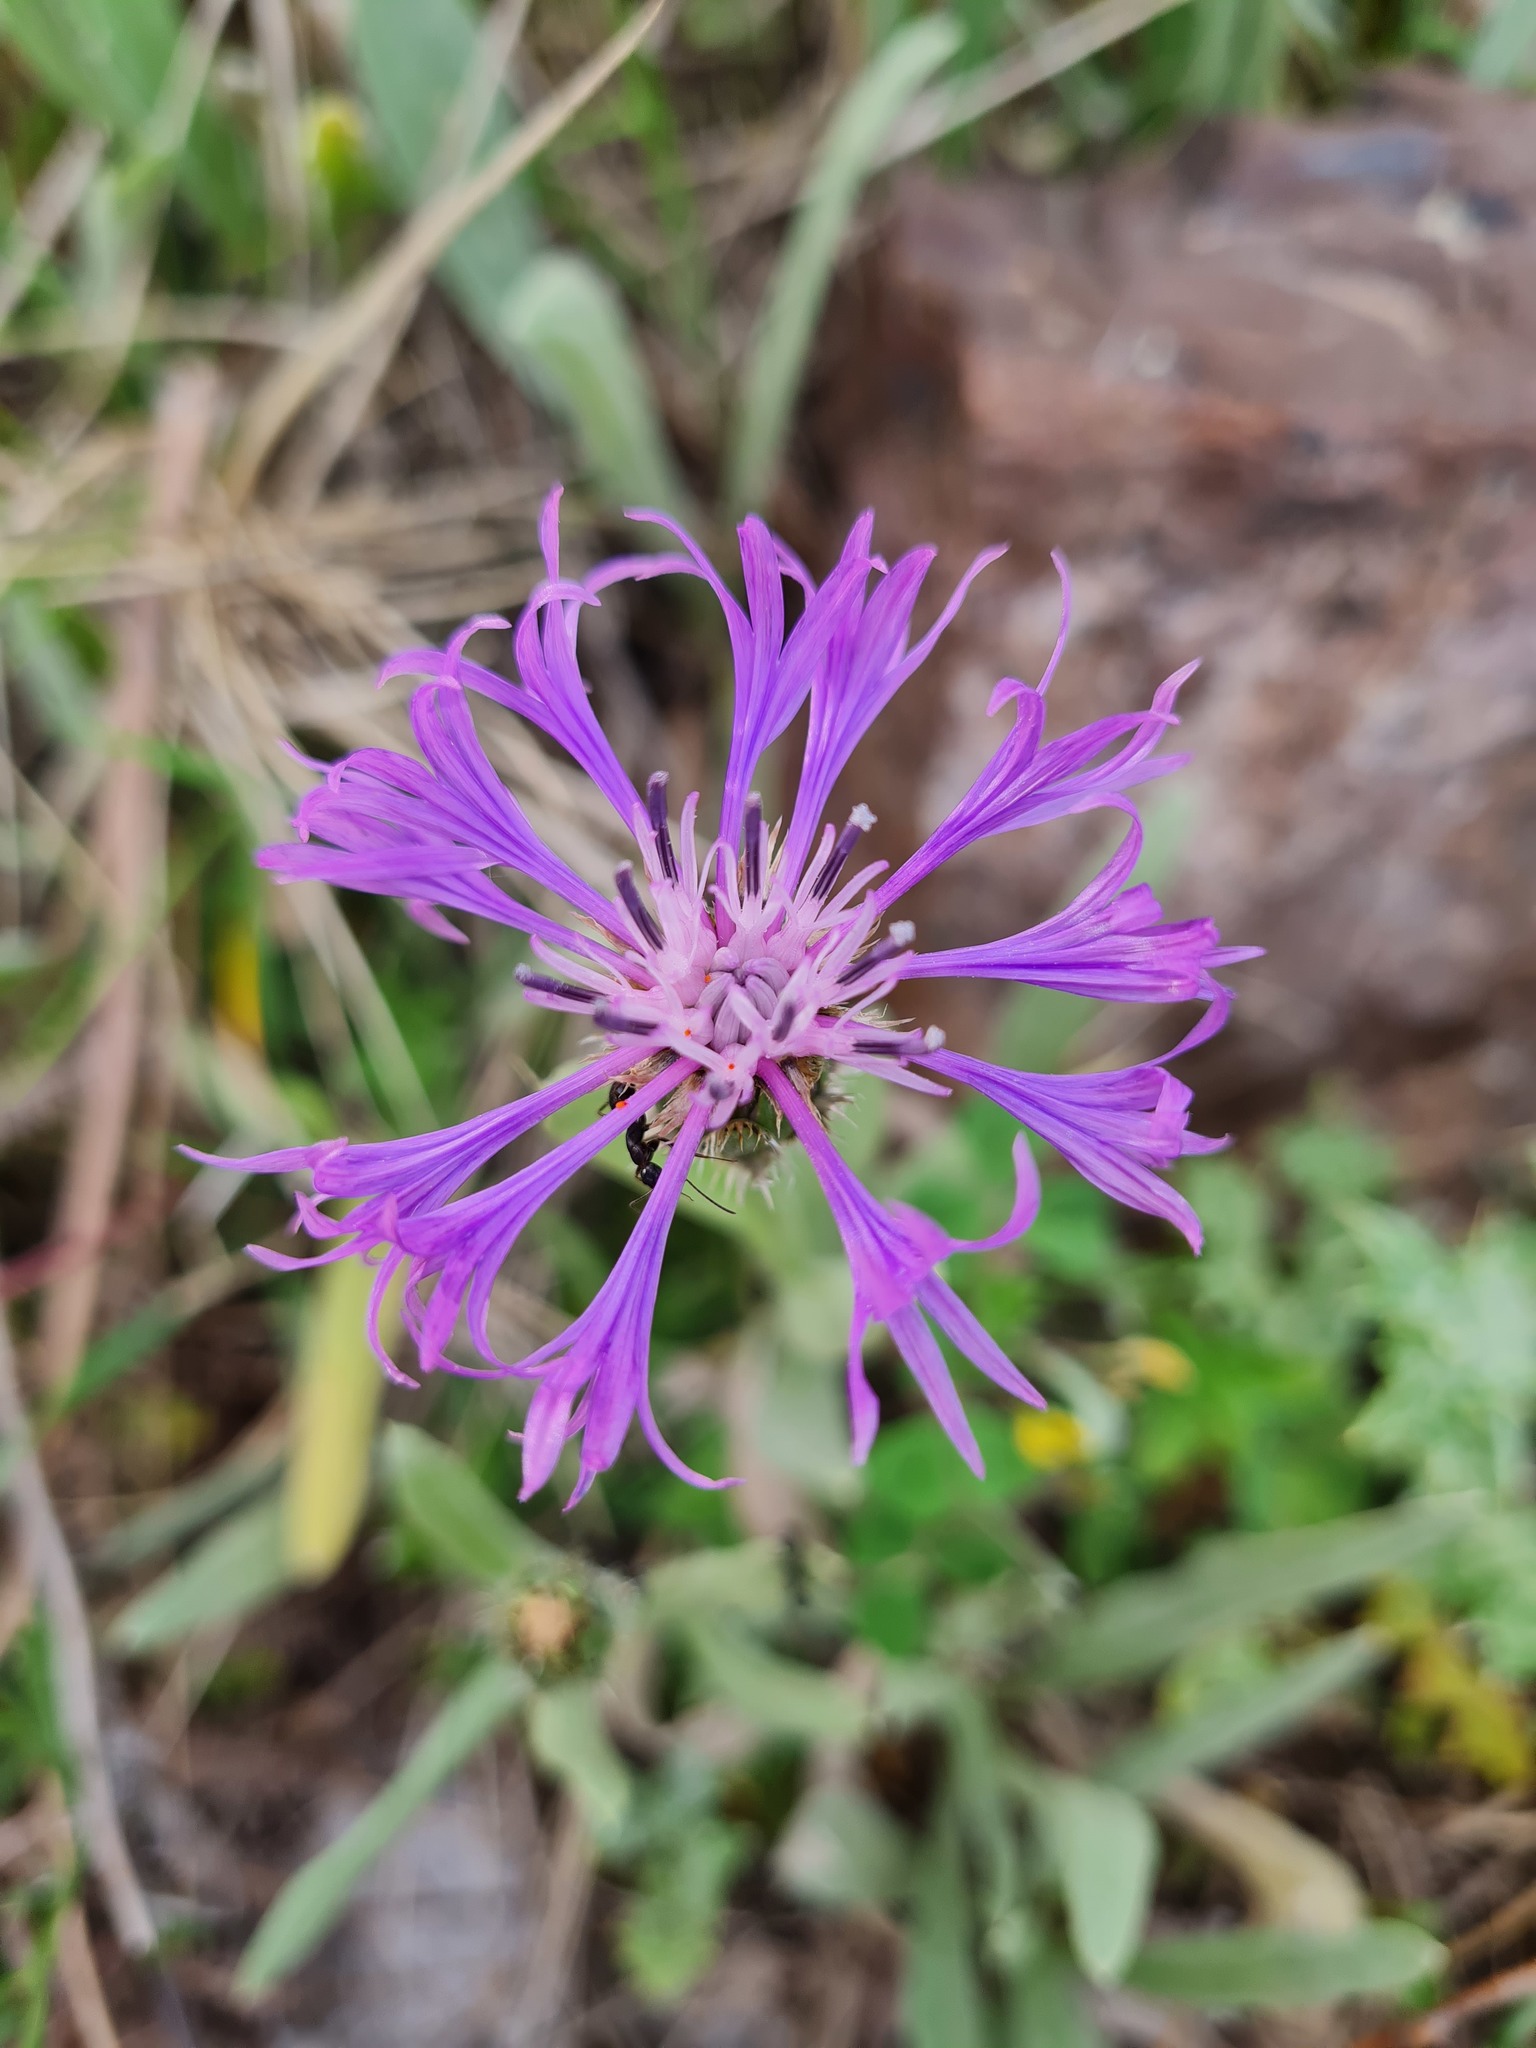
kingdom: Plantae
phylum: Tracheophyta
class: Magnoliopsida
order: Asterales
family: Asteraceae
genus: Centaurea
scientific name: Centaurea montana
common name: Perennial cornflower
